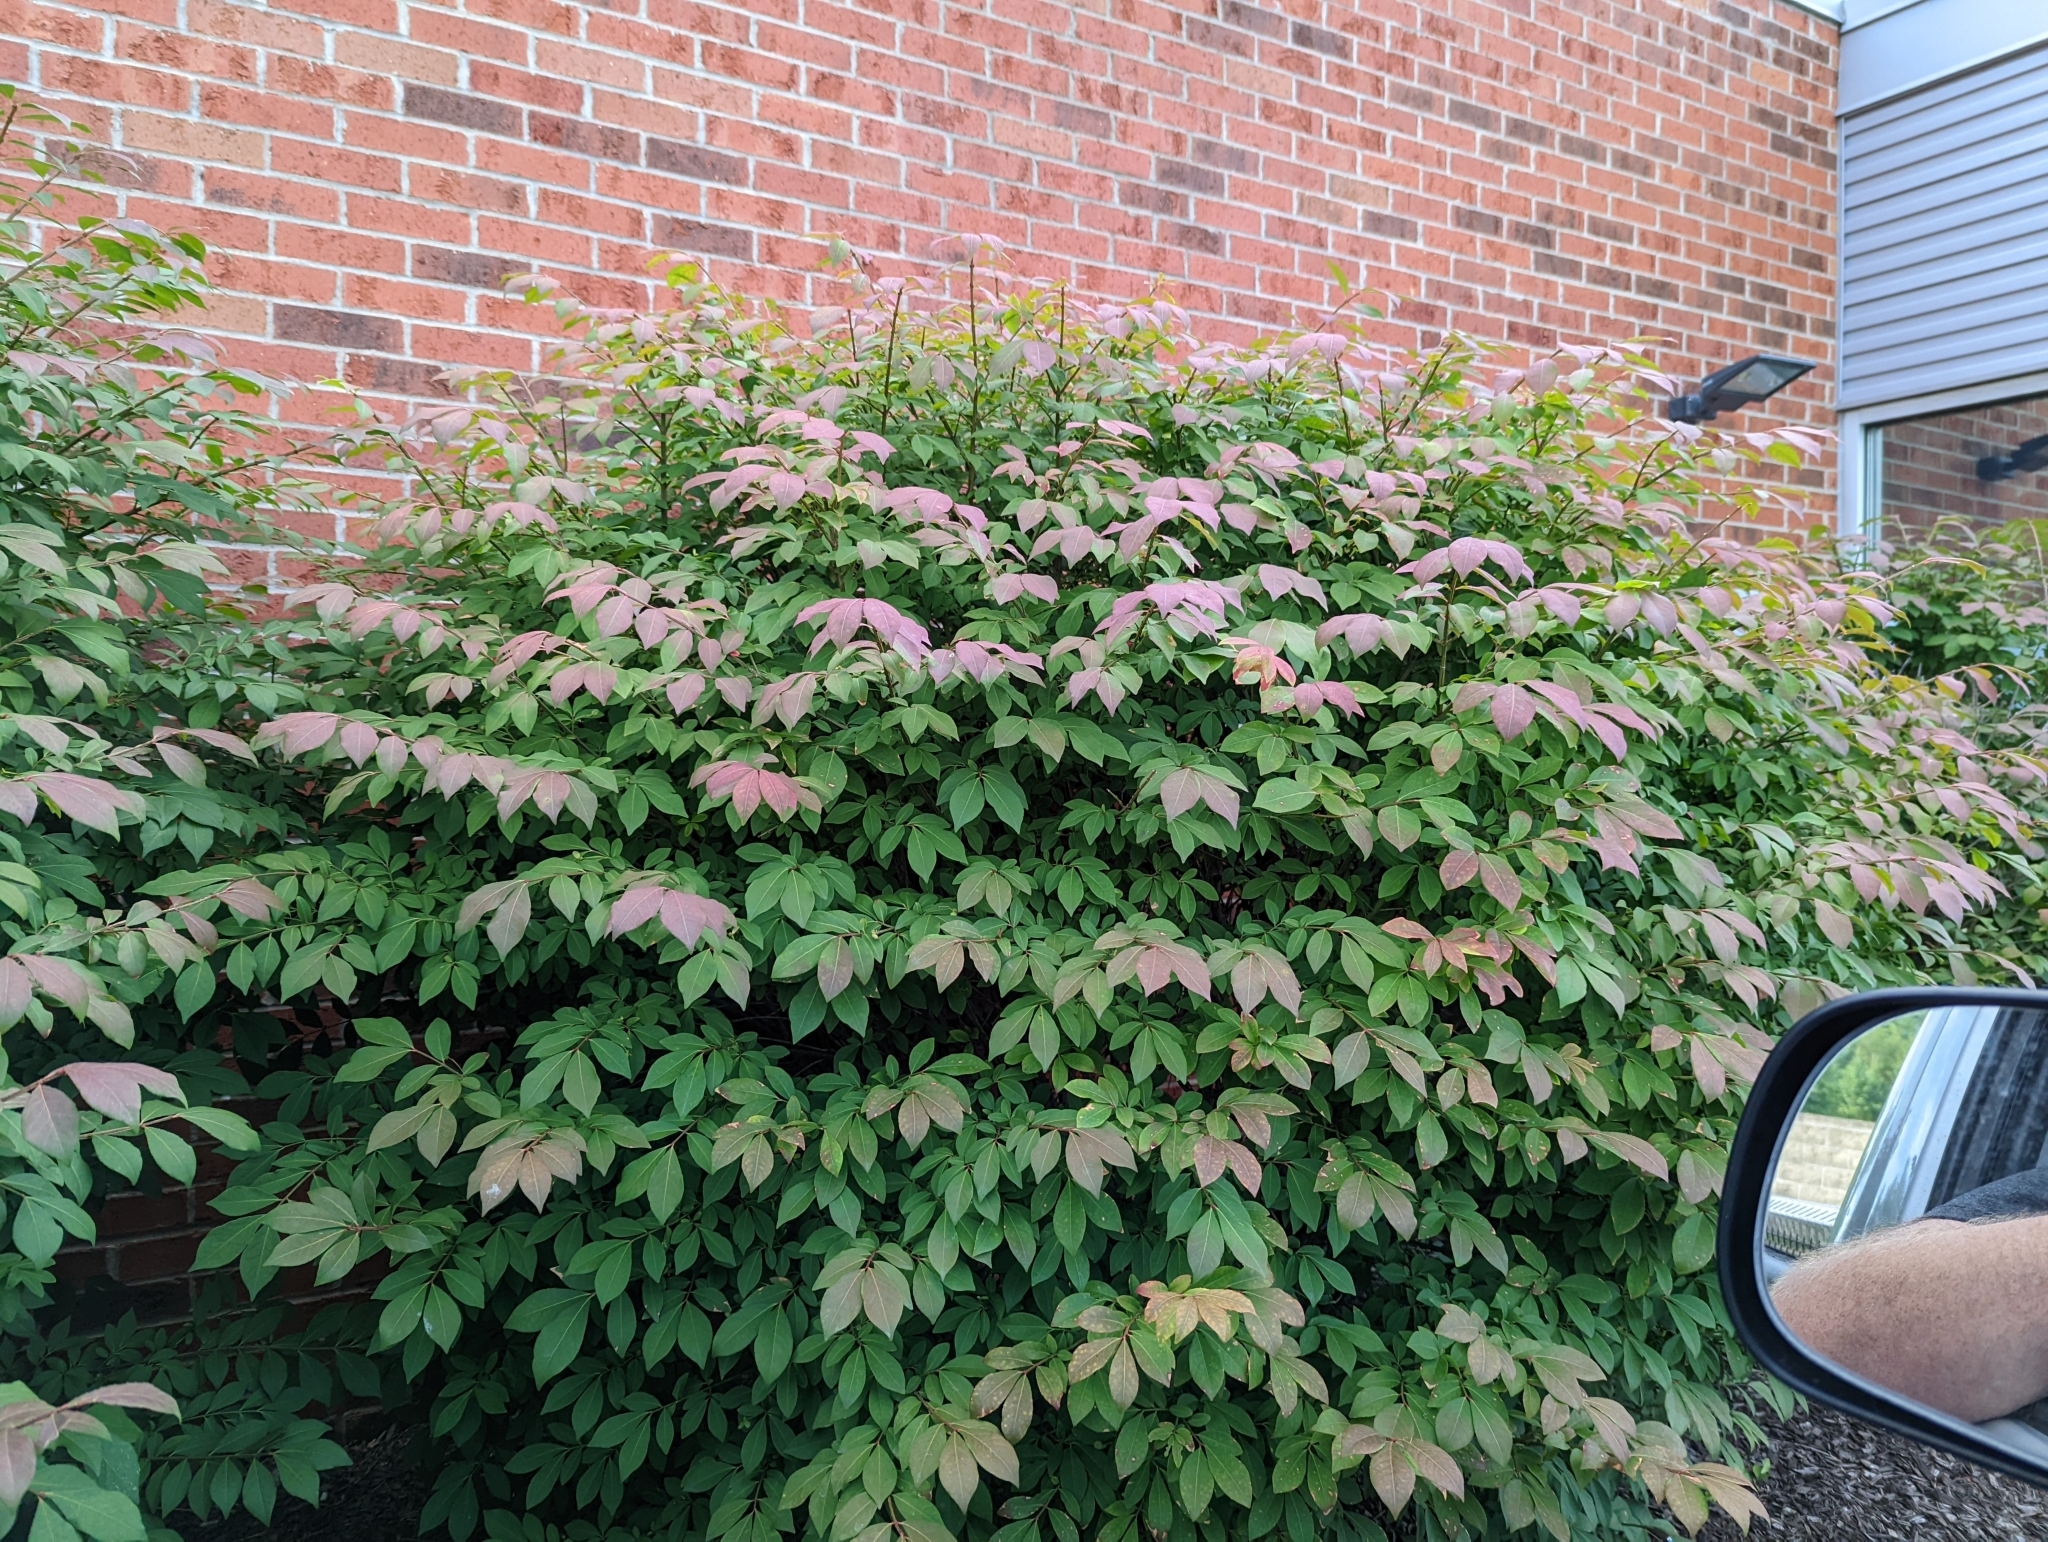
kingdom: Plantae
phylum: Tracheophyta
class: Magnoliopsida
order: Celastrales
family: Celastraceae
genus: Euonymus
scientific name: Euonymus alatus
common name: Winged euonymus
